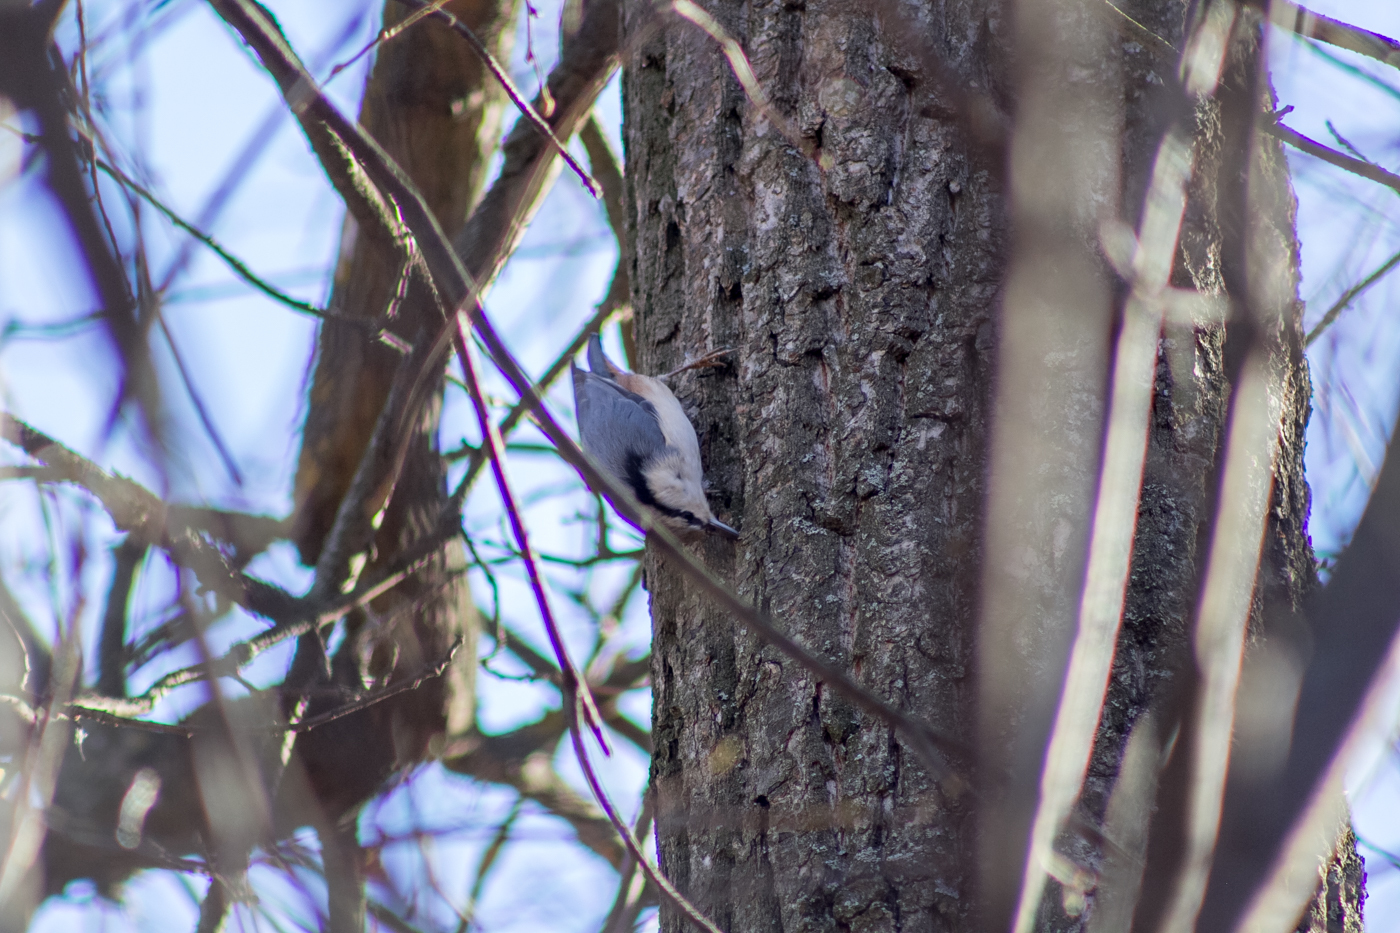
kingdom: Animalia
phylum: Chordata
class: Aves
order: Passeriformes
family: Sittidae
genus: Sitta
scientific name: Sitta europaea
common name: Eurasian nuthatch
